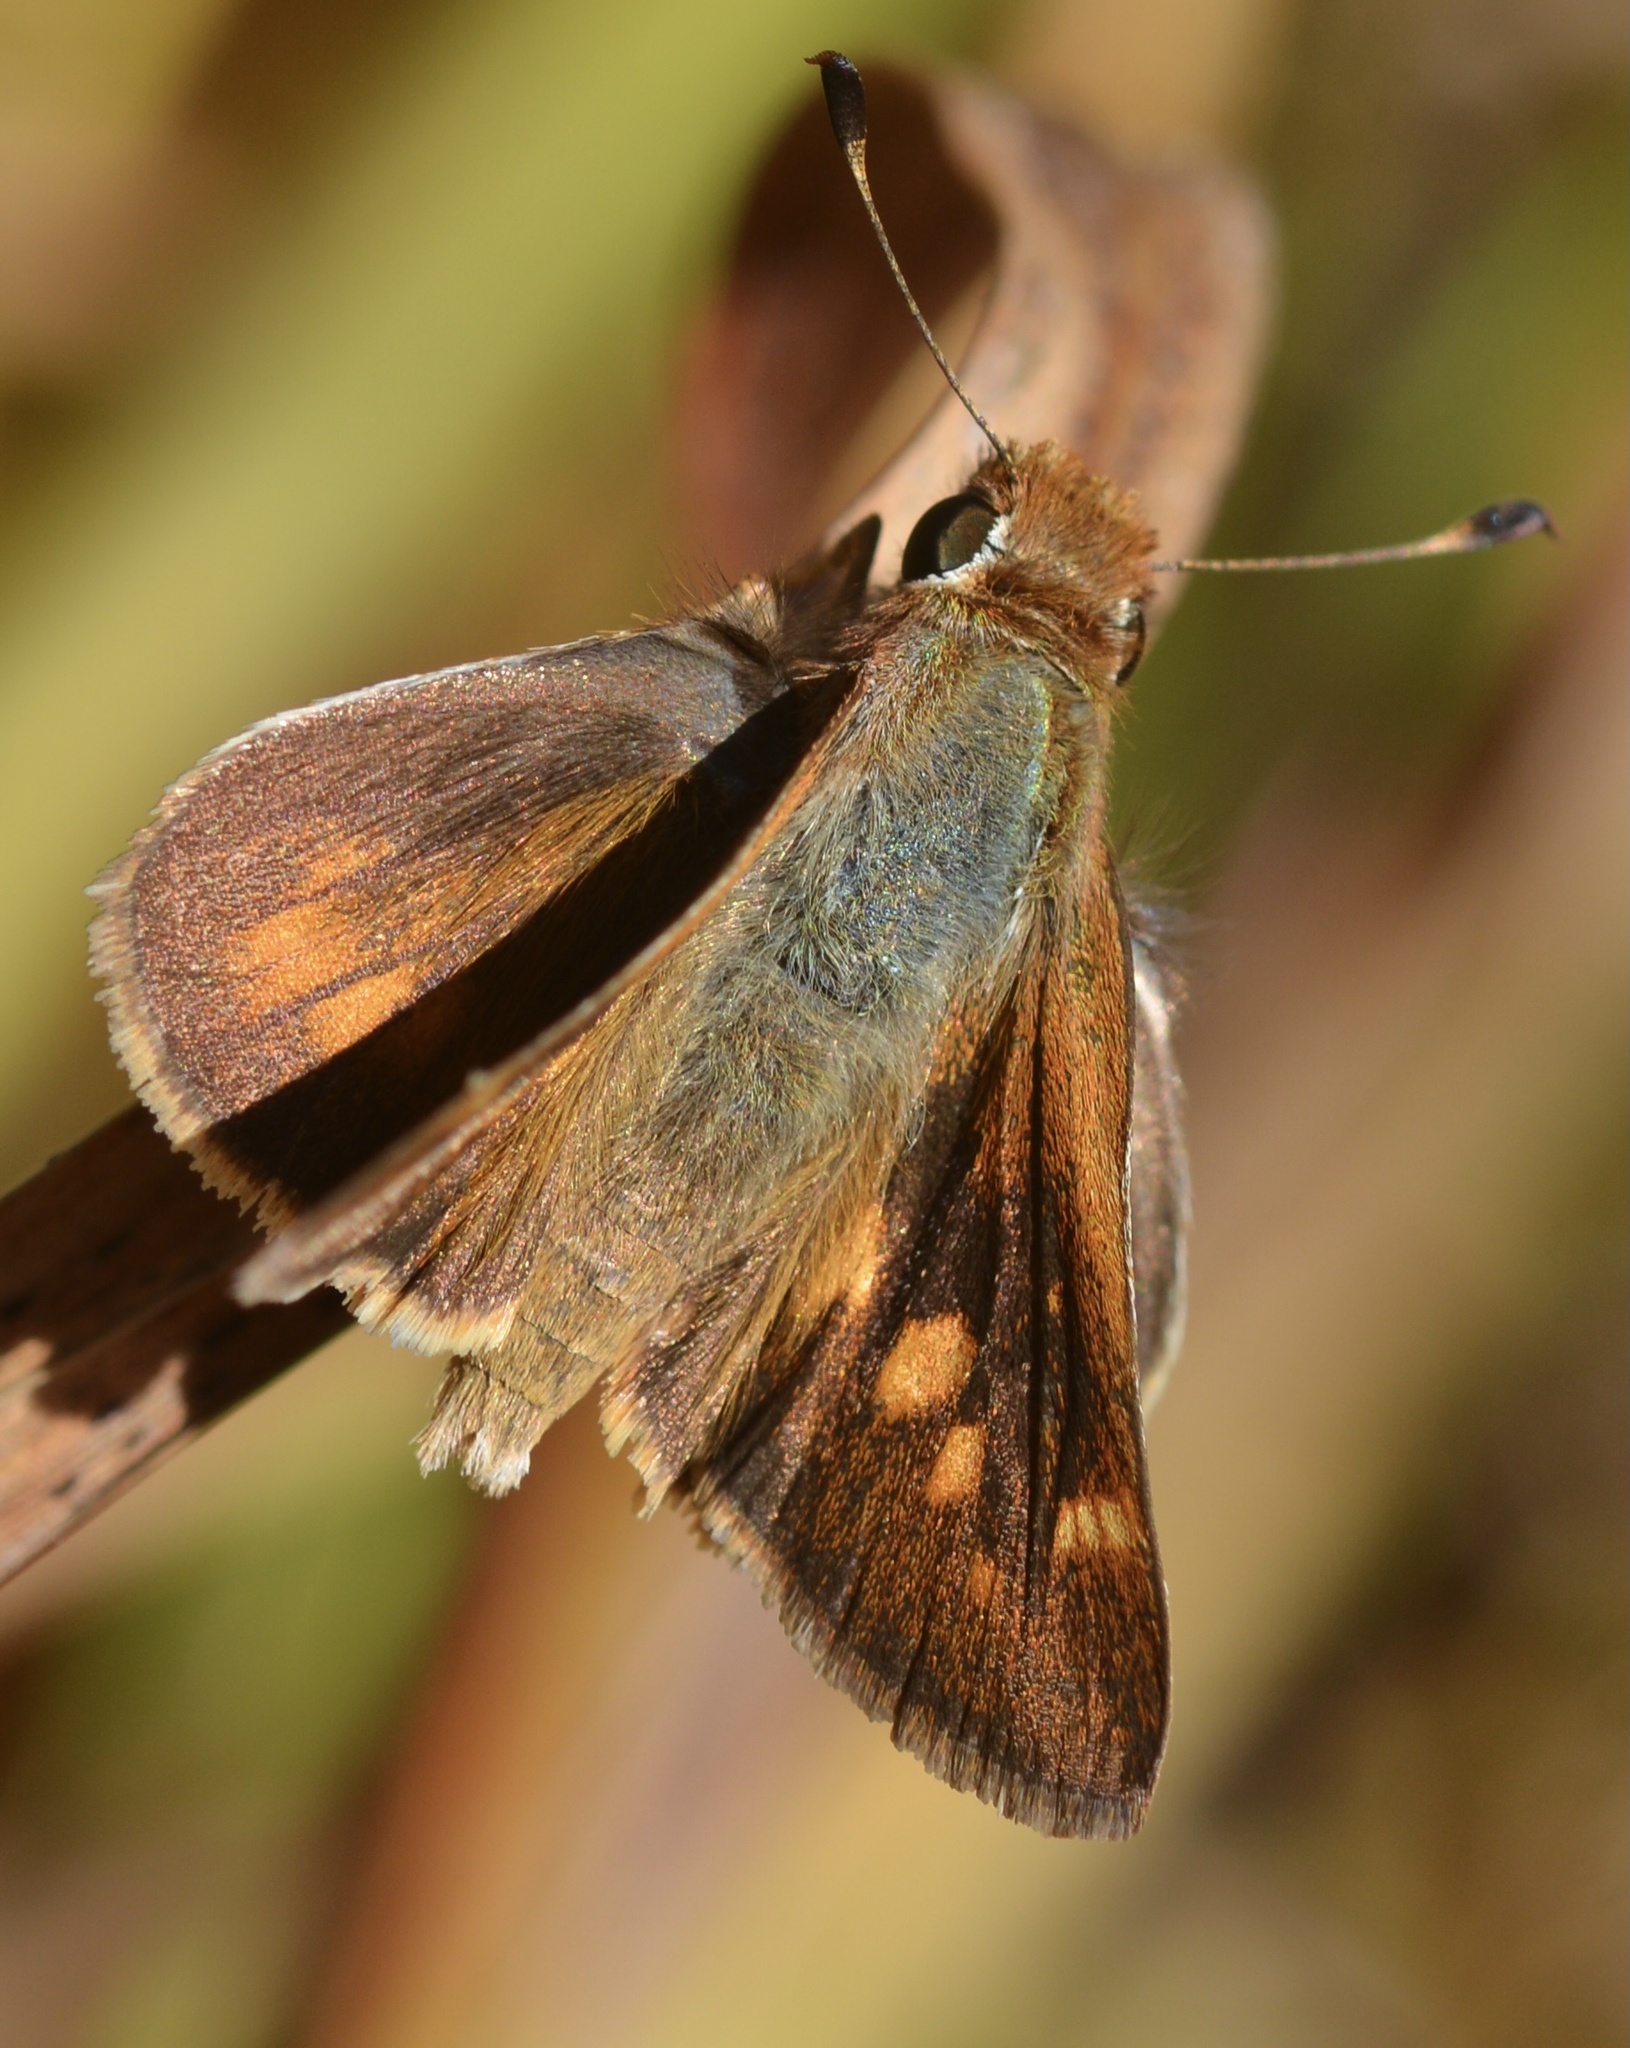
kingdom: Animalia
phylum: Arthropoda
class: Insecta
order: Lepidoptera
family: Hesperiidae
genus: Lon
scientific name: Lon melane
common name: Umber skipper
